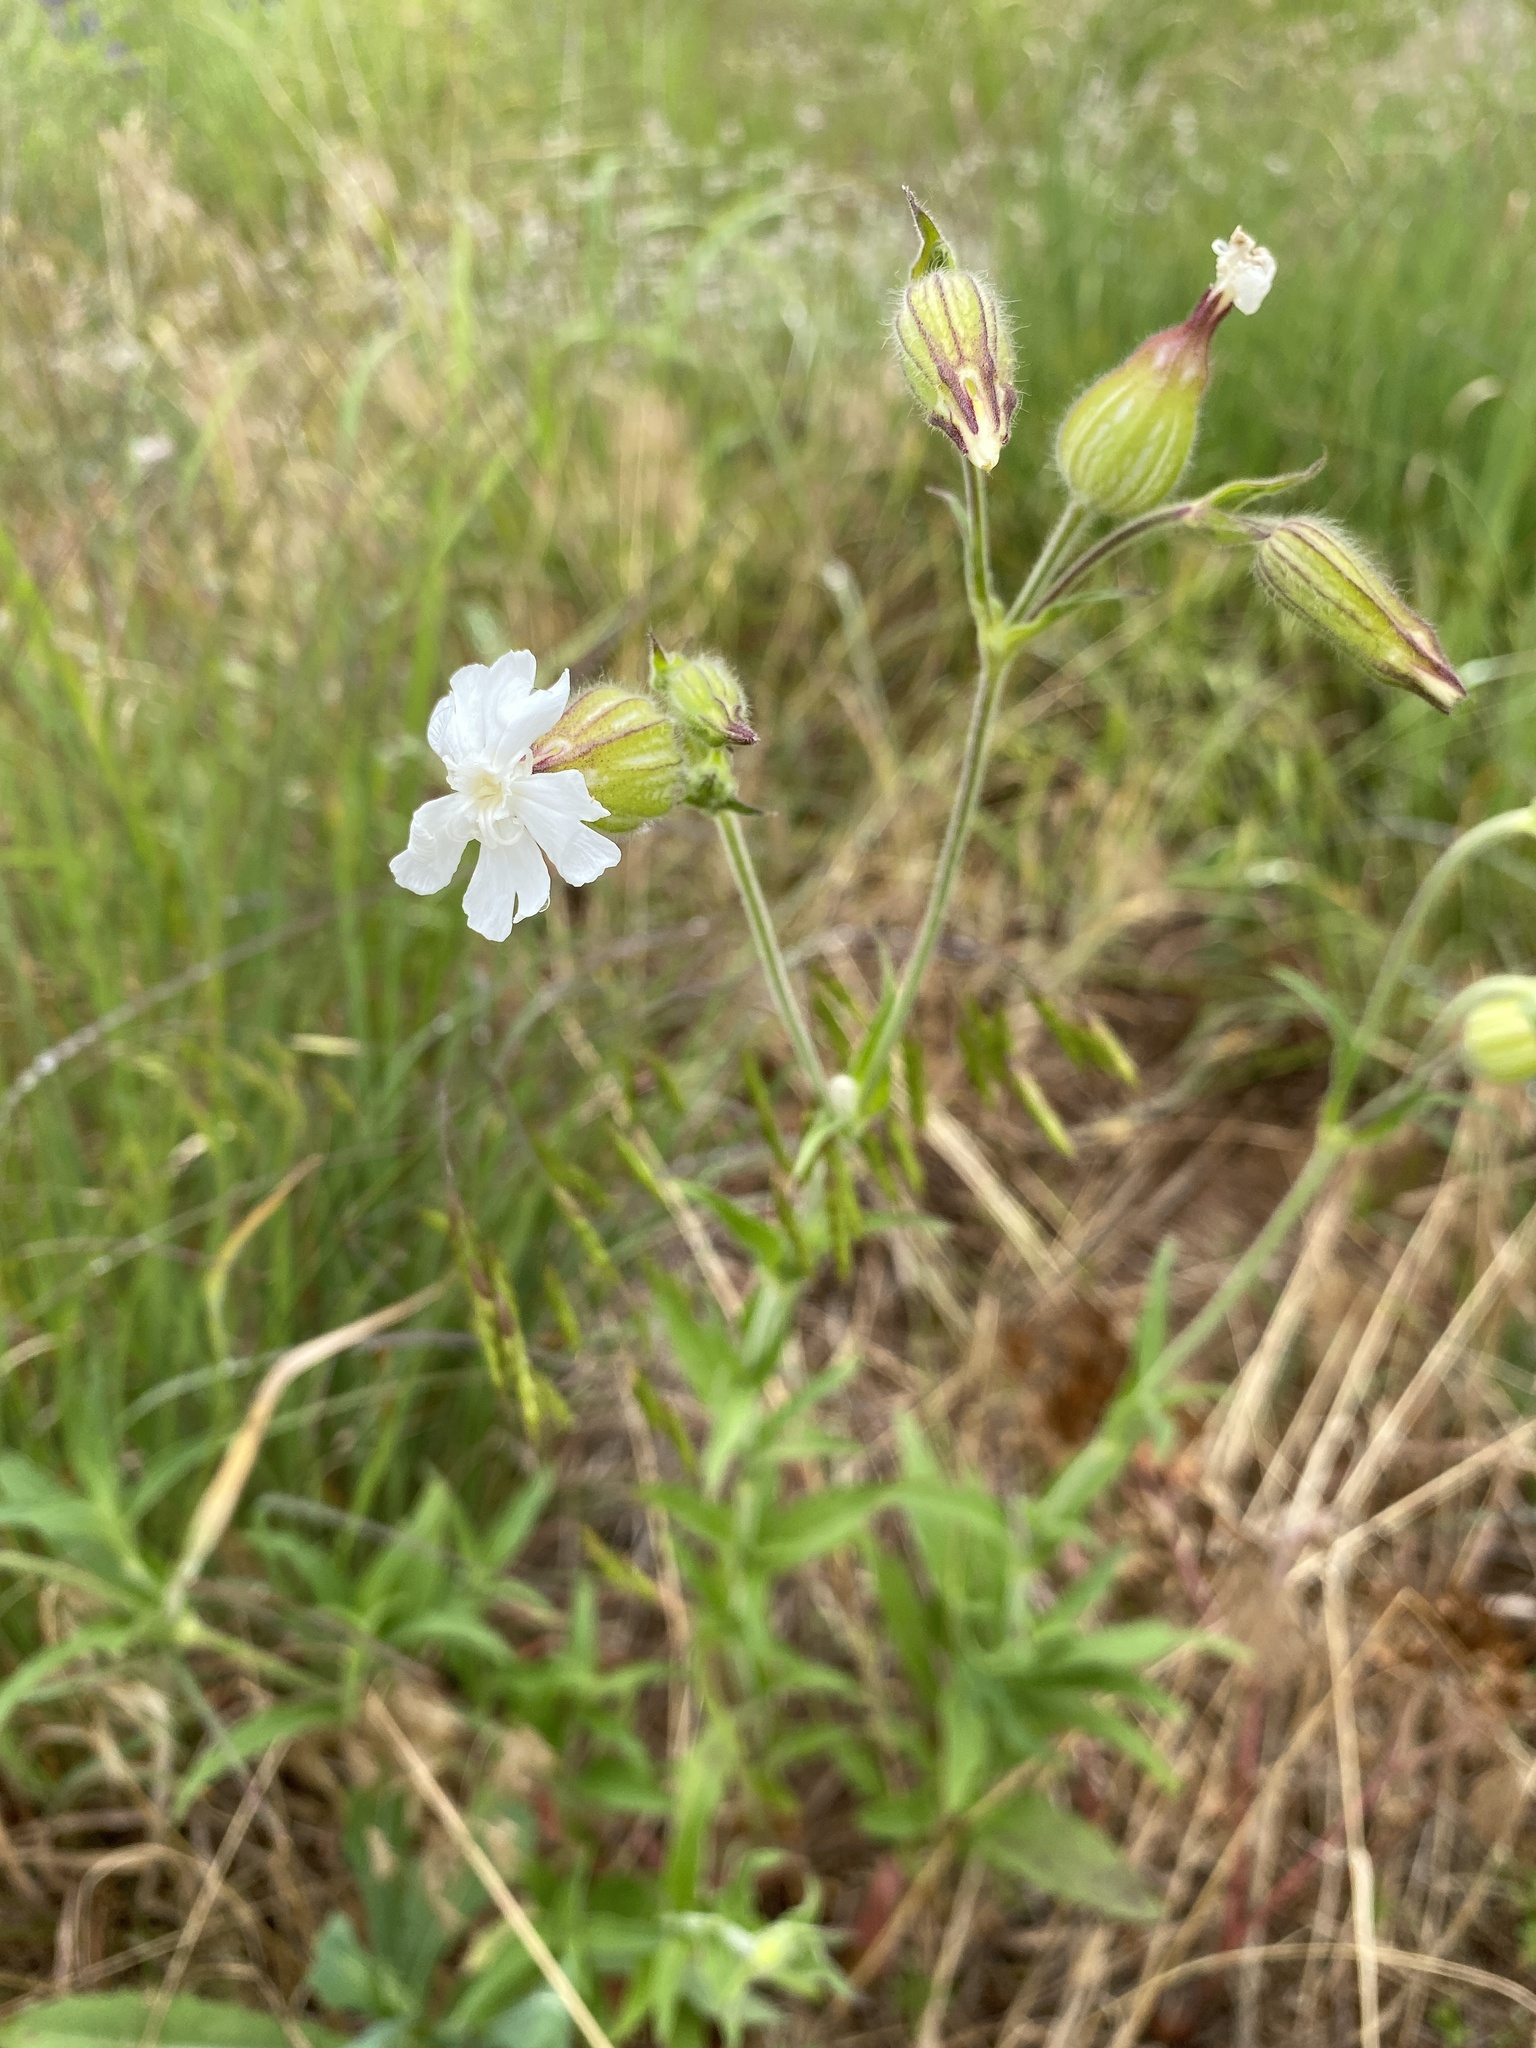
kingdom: Plantae
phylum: Tracheophyta
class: Magnoliopsida
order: Caryophyllales
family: Caryophyllaceae
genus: Silene
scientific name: Silene latifolia
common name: White campion
